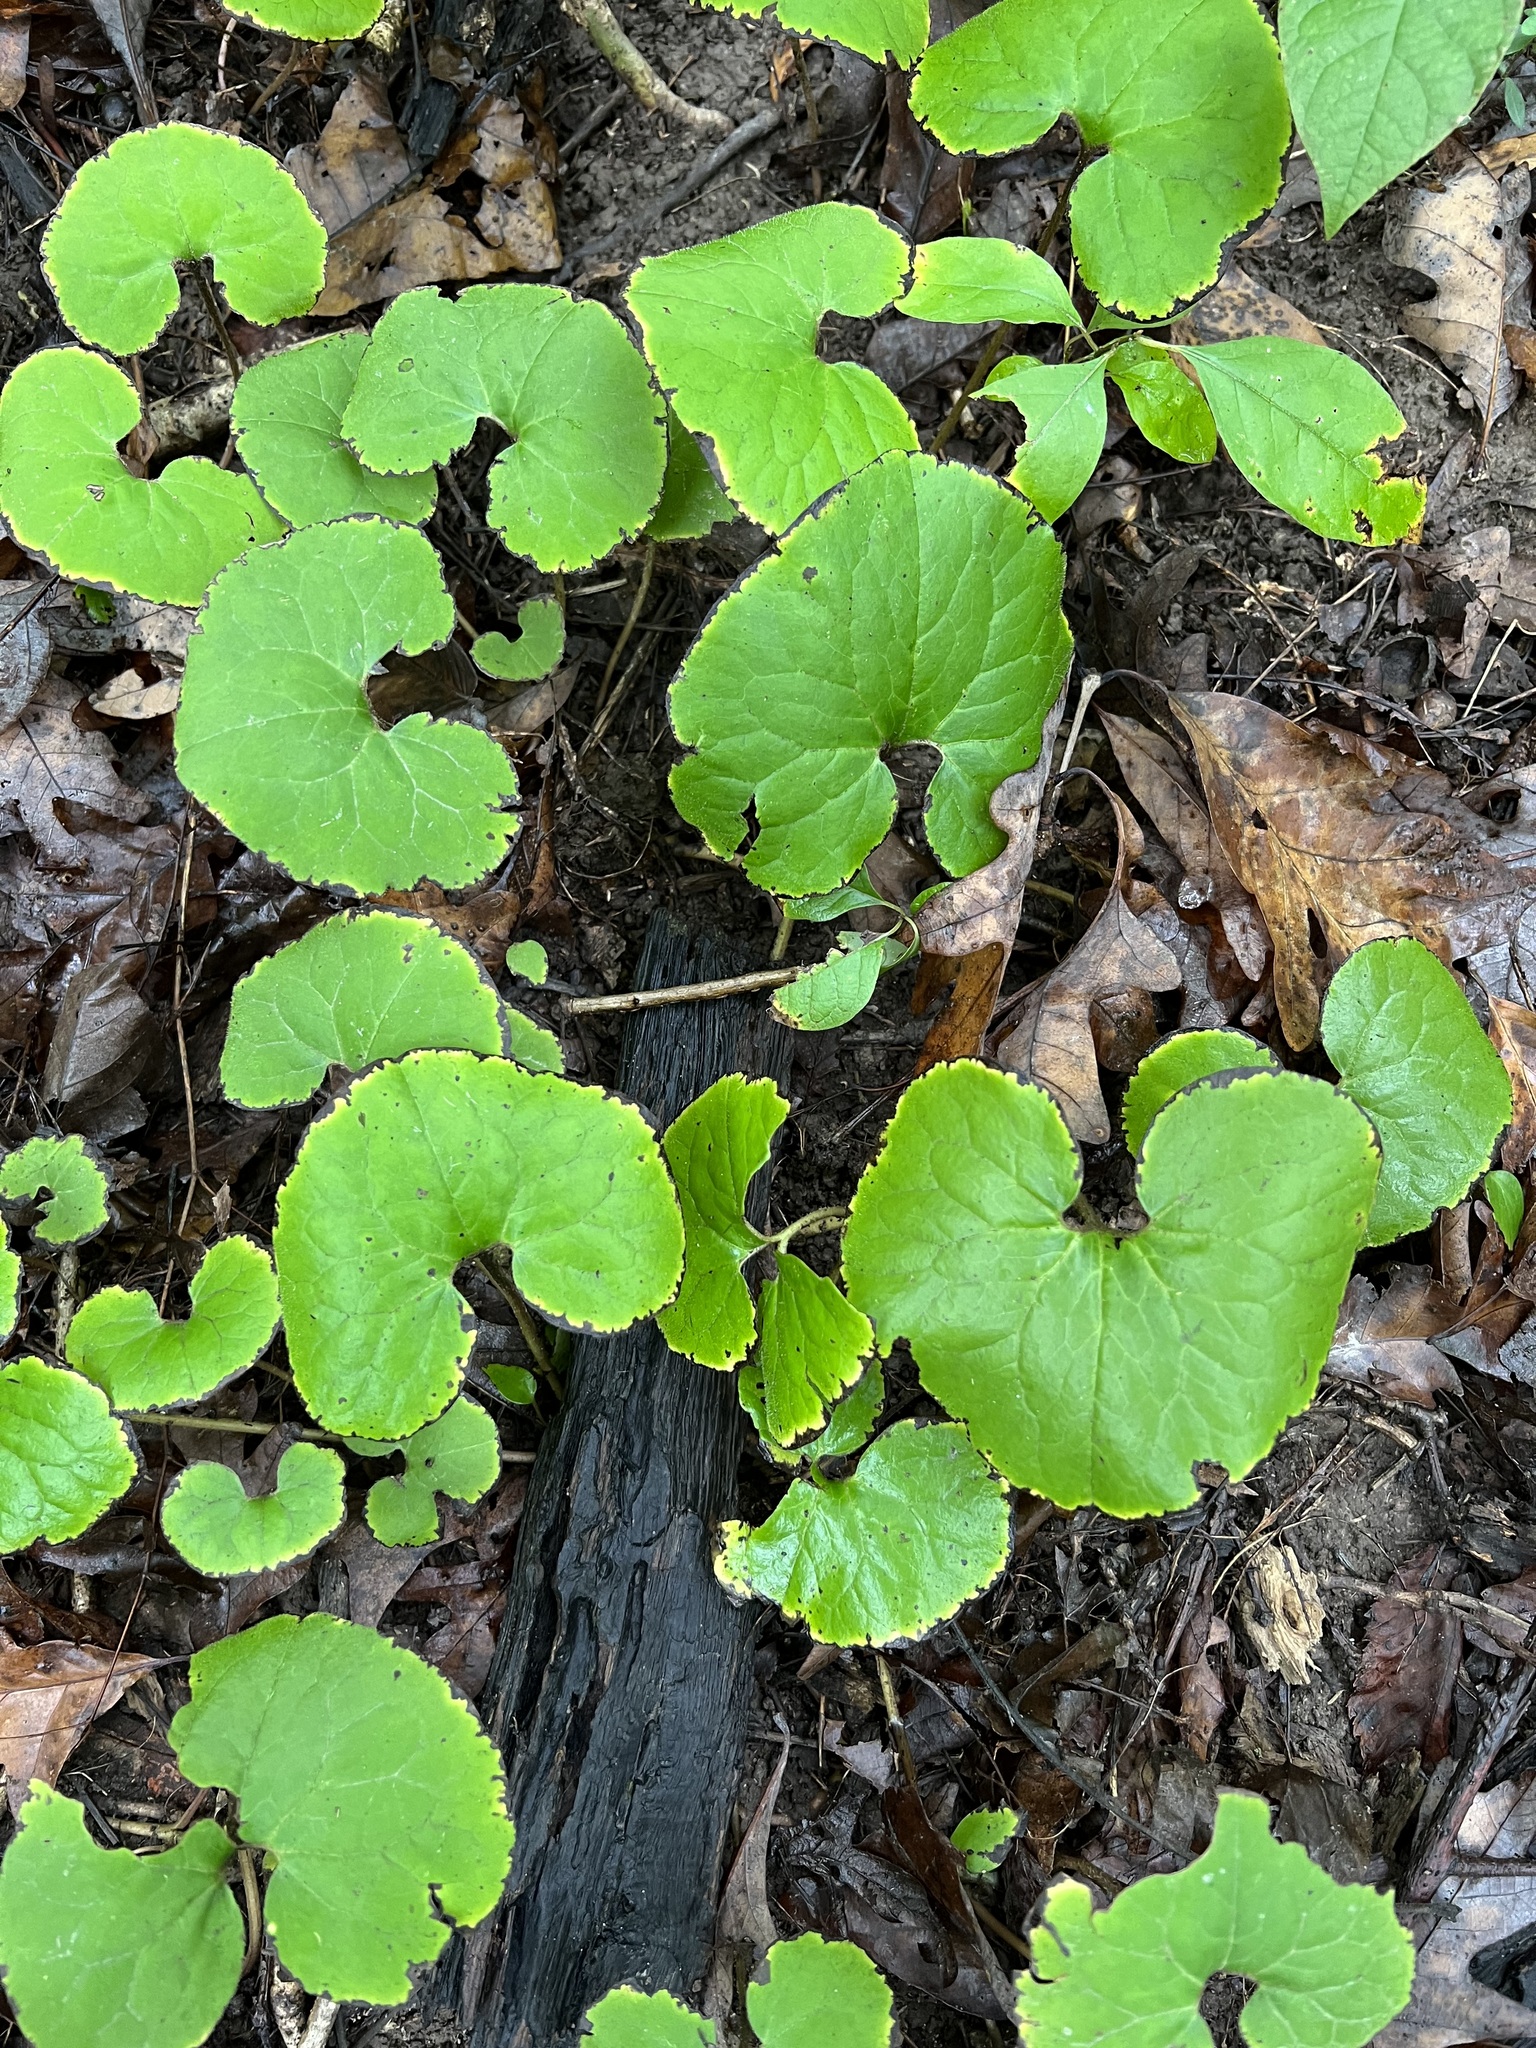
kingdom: Plantae
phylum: Tracheophyta
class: Magnoliopsida
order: Piperales
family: Aristolochiaceae
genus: Asarum
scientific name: Asarum canadense
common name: Wild ginger
